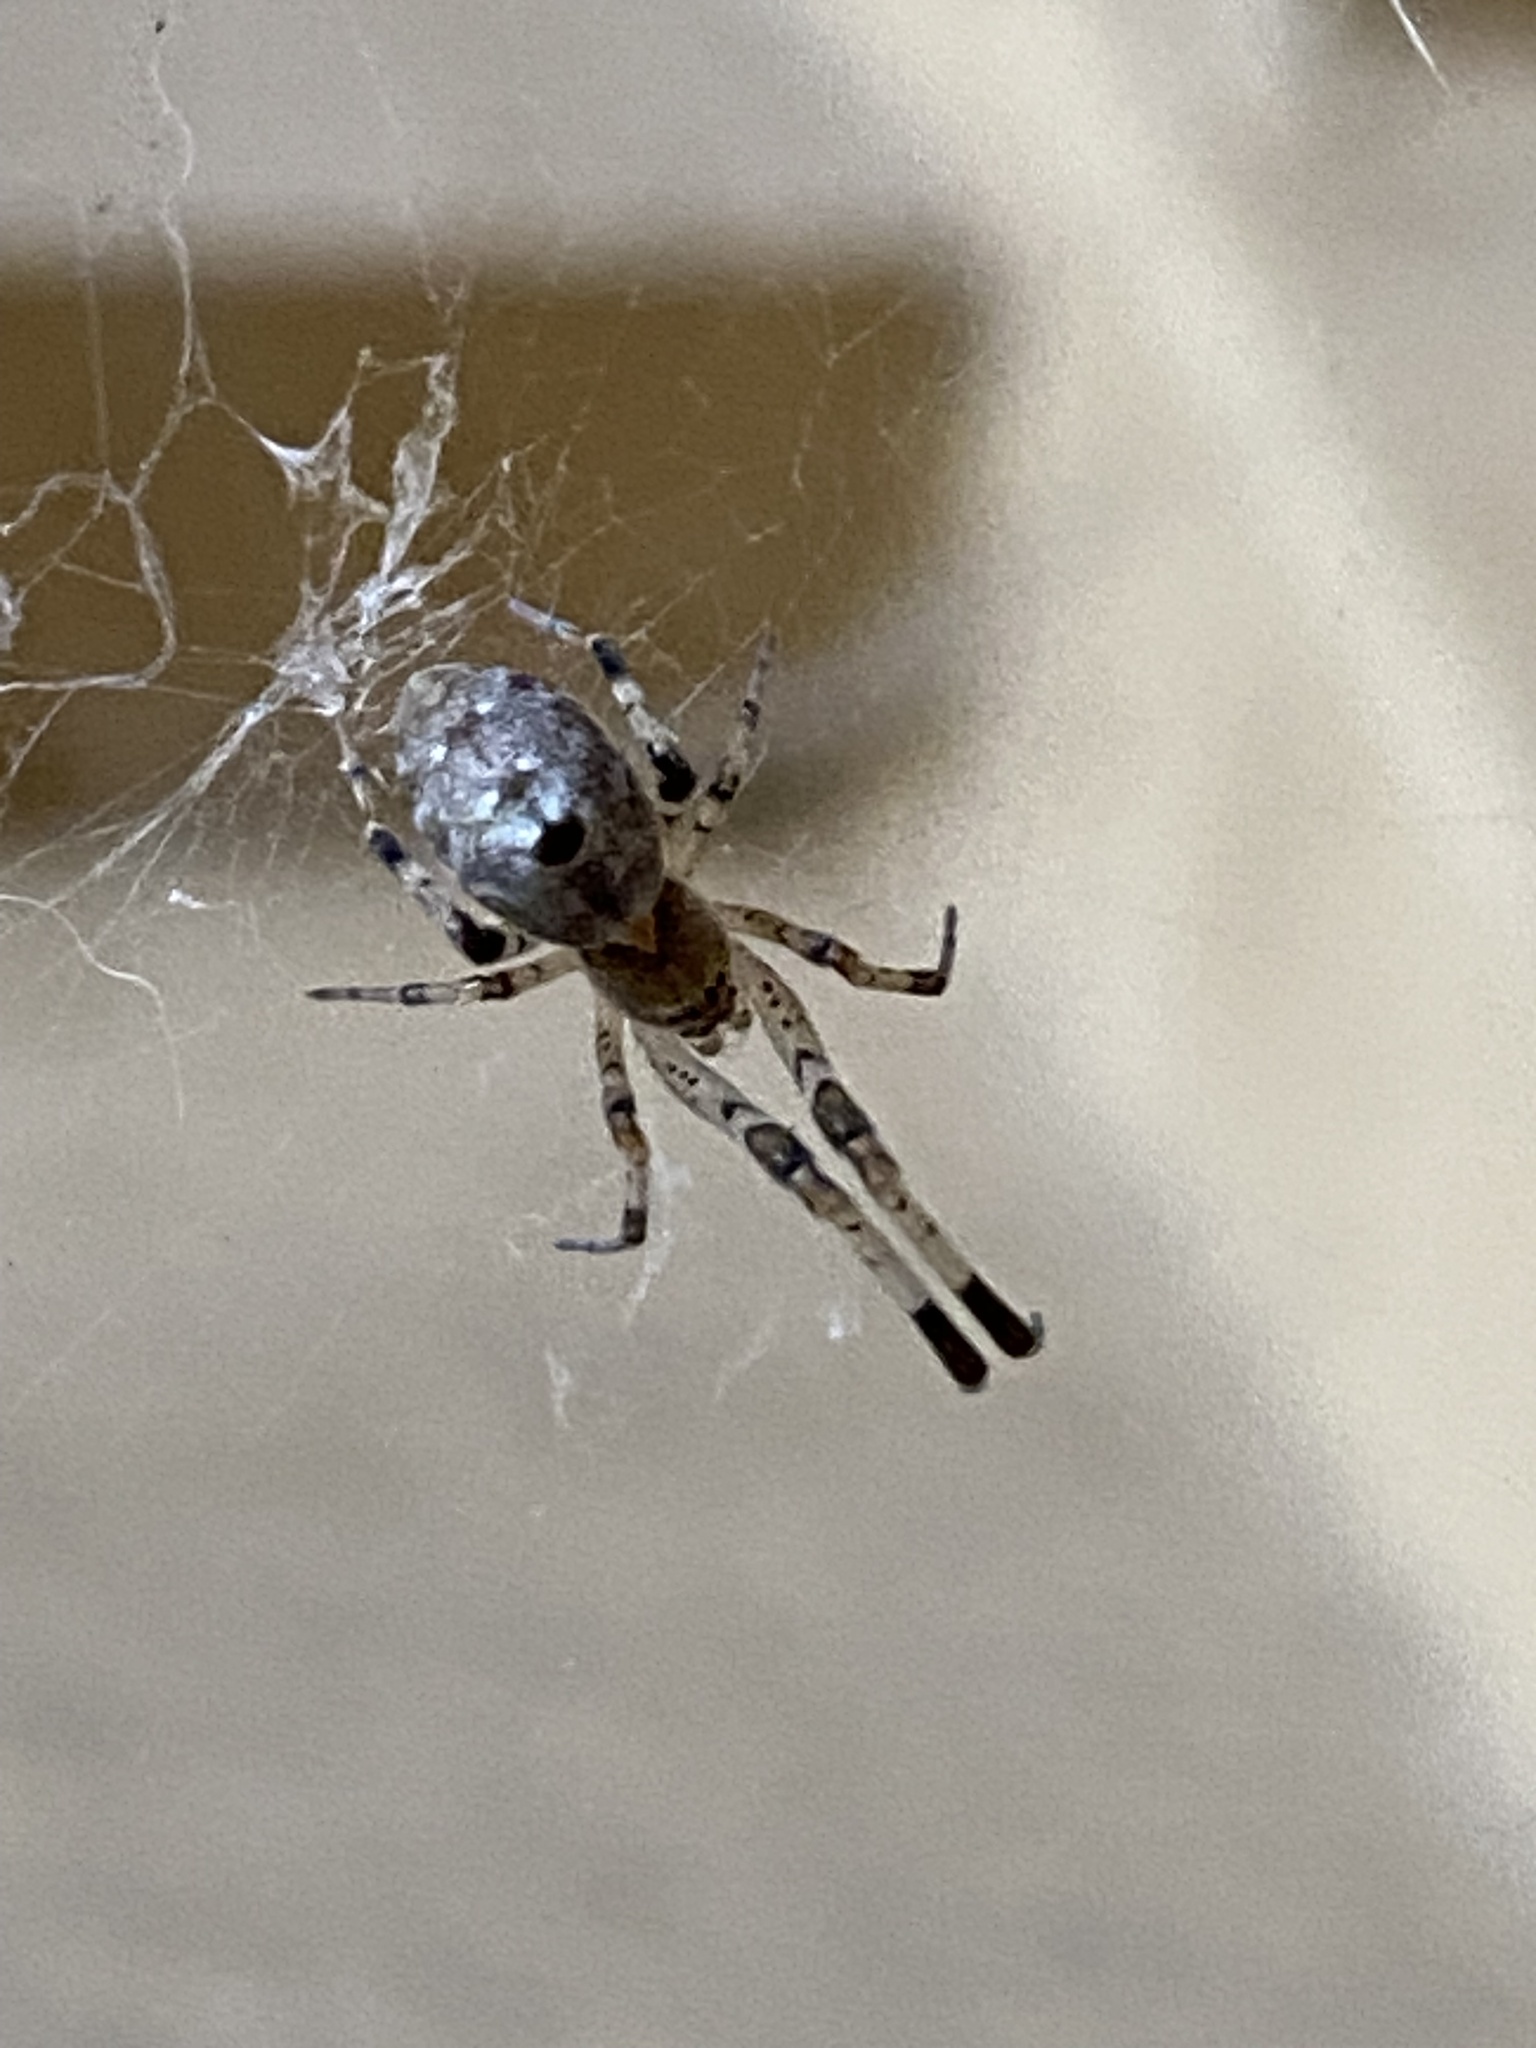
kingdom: Animalia
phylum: Arthropoda
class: Arachnida
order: Araneae
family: Uloboridae
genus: Zosis
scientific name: Zosis geniculata
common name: Hackled orb weavers
